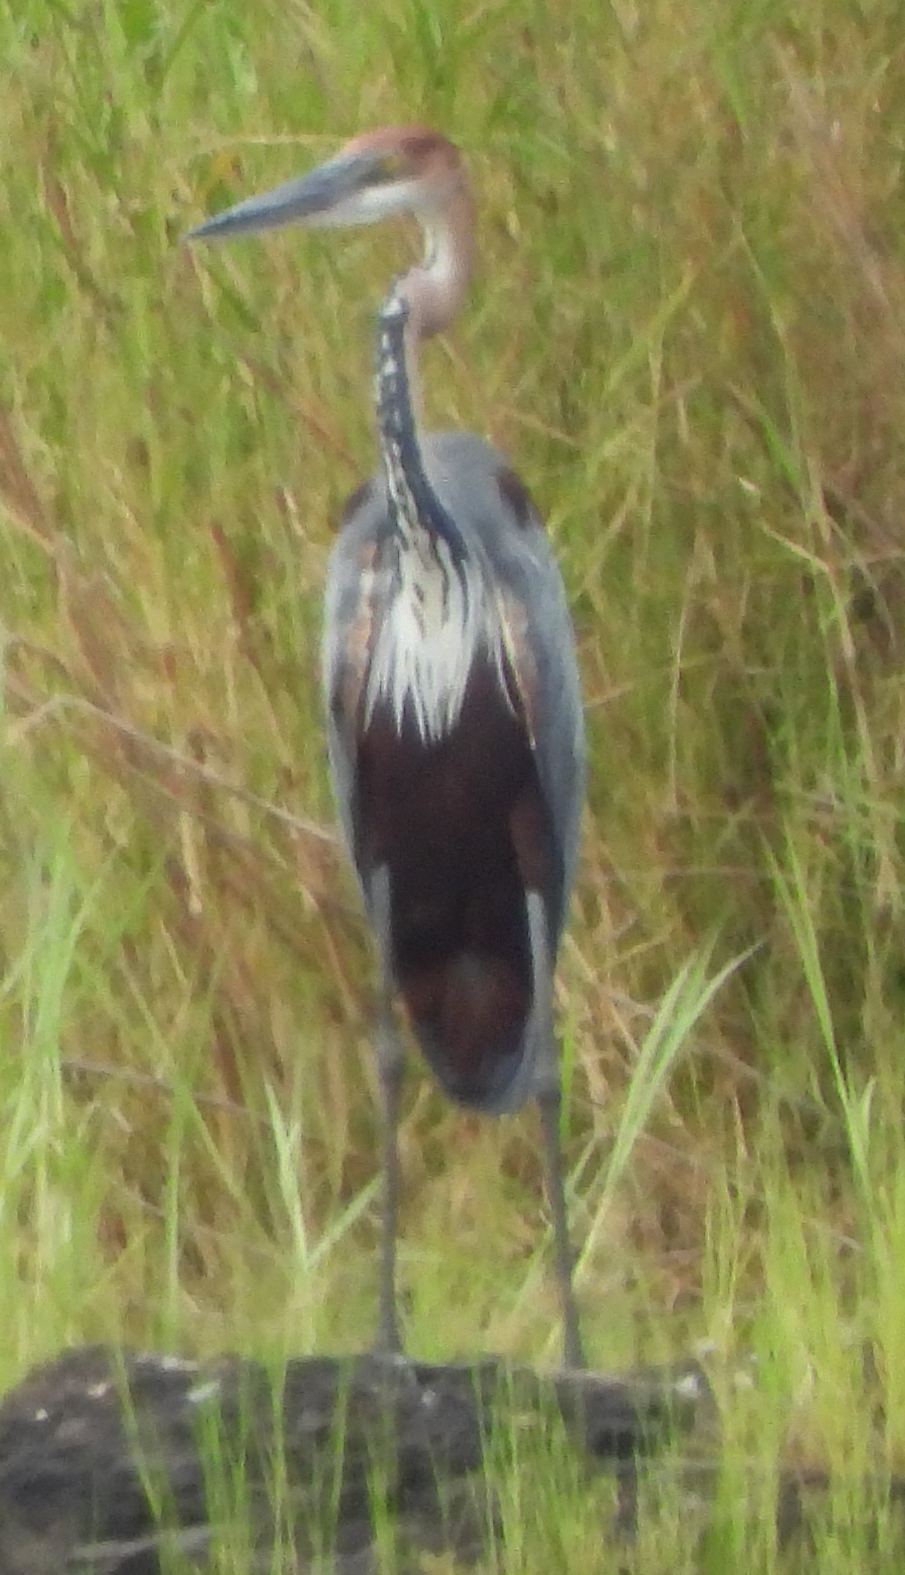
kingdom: Animalia
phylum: Chordata
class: Aves
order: Pelecaniformes
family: Ardeidae
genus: Ardea
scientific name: Ardea goliath
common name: Goliath heron
